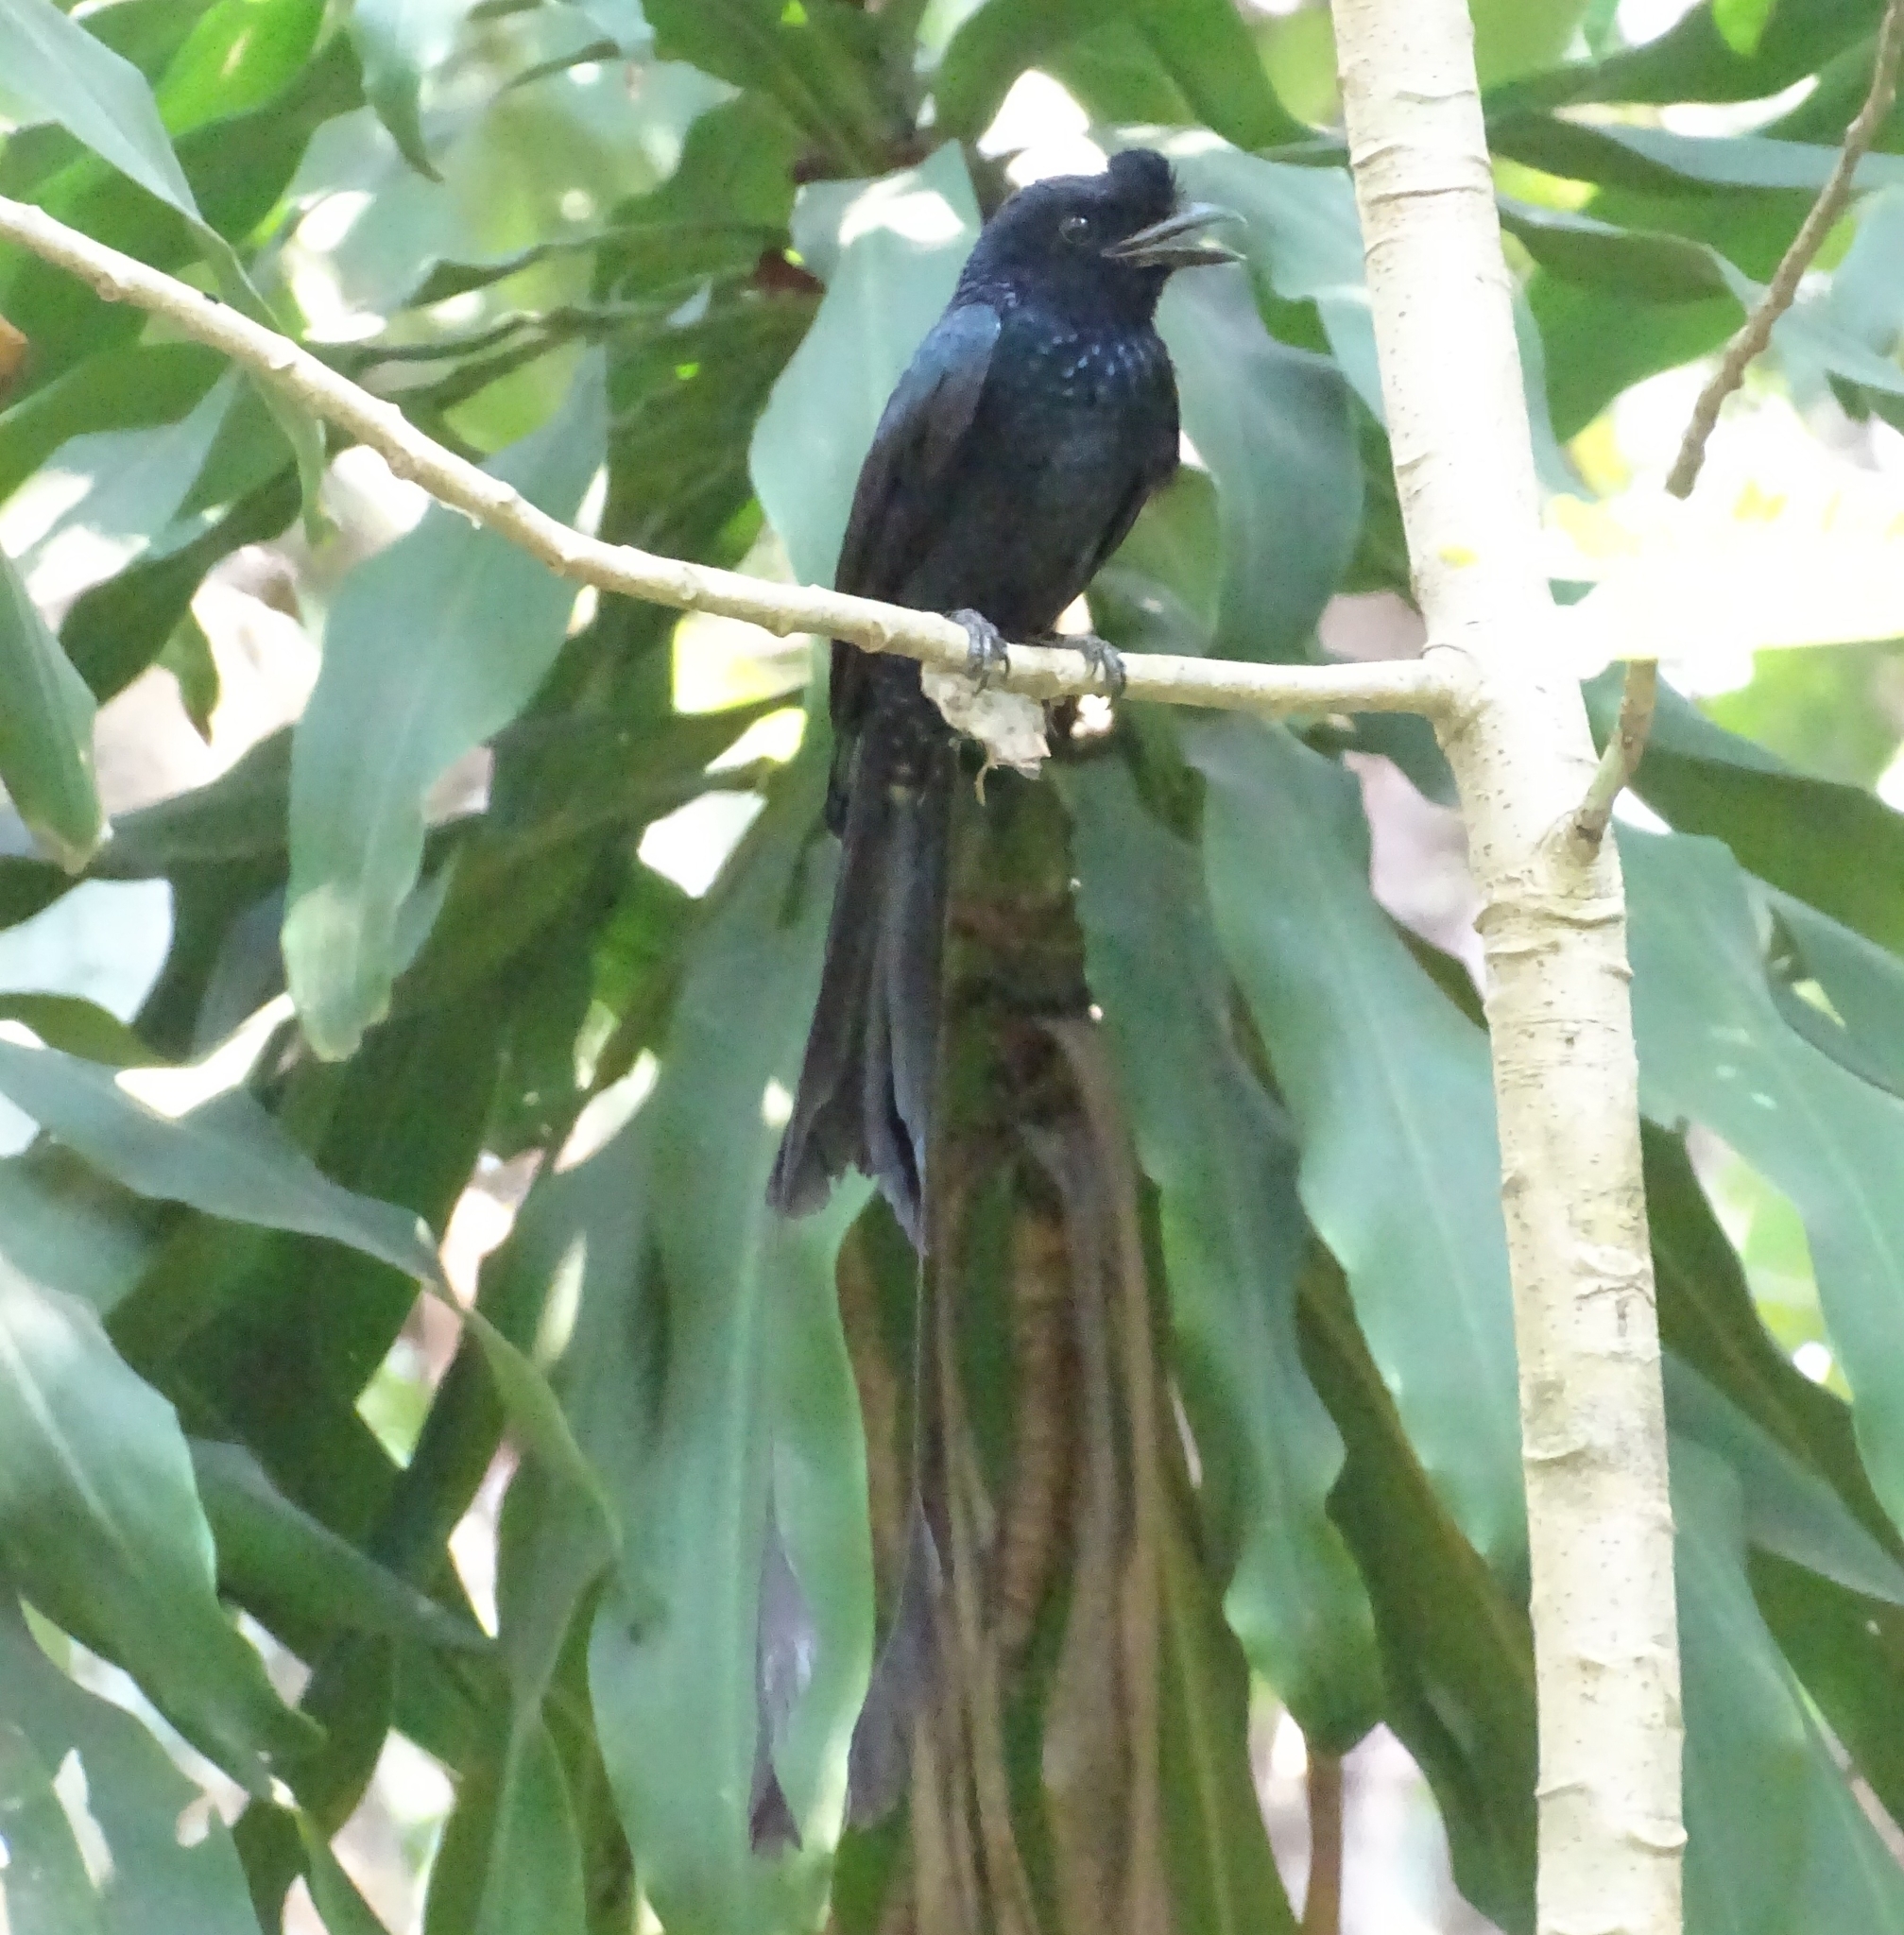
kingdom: Animalia
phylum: Chordata
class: Aves
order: Passeriformes
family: Dicruridae
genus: Dicrurus
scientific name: Dicrurus paradiseus
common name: Greater racket-tailed drongo
